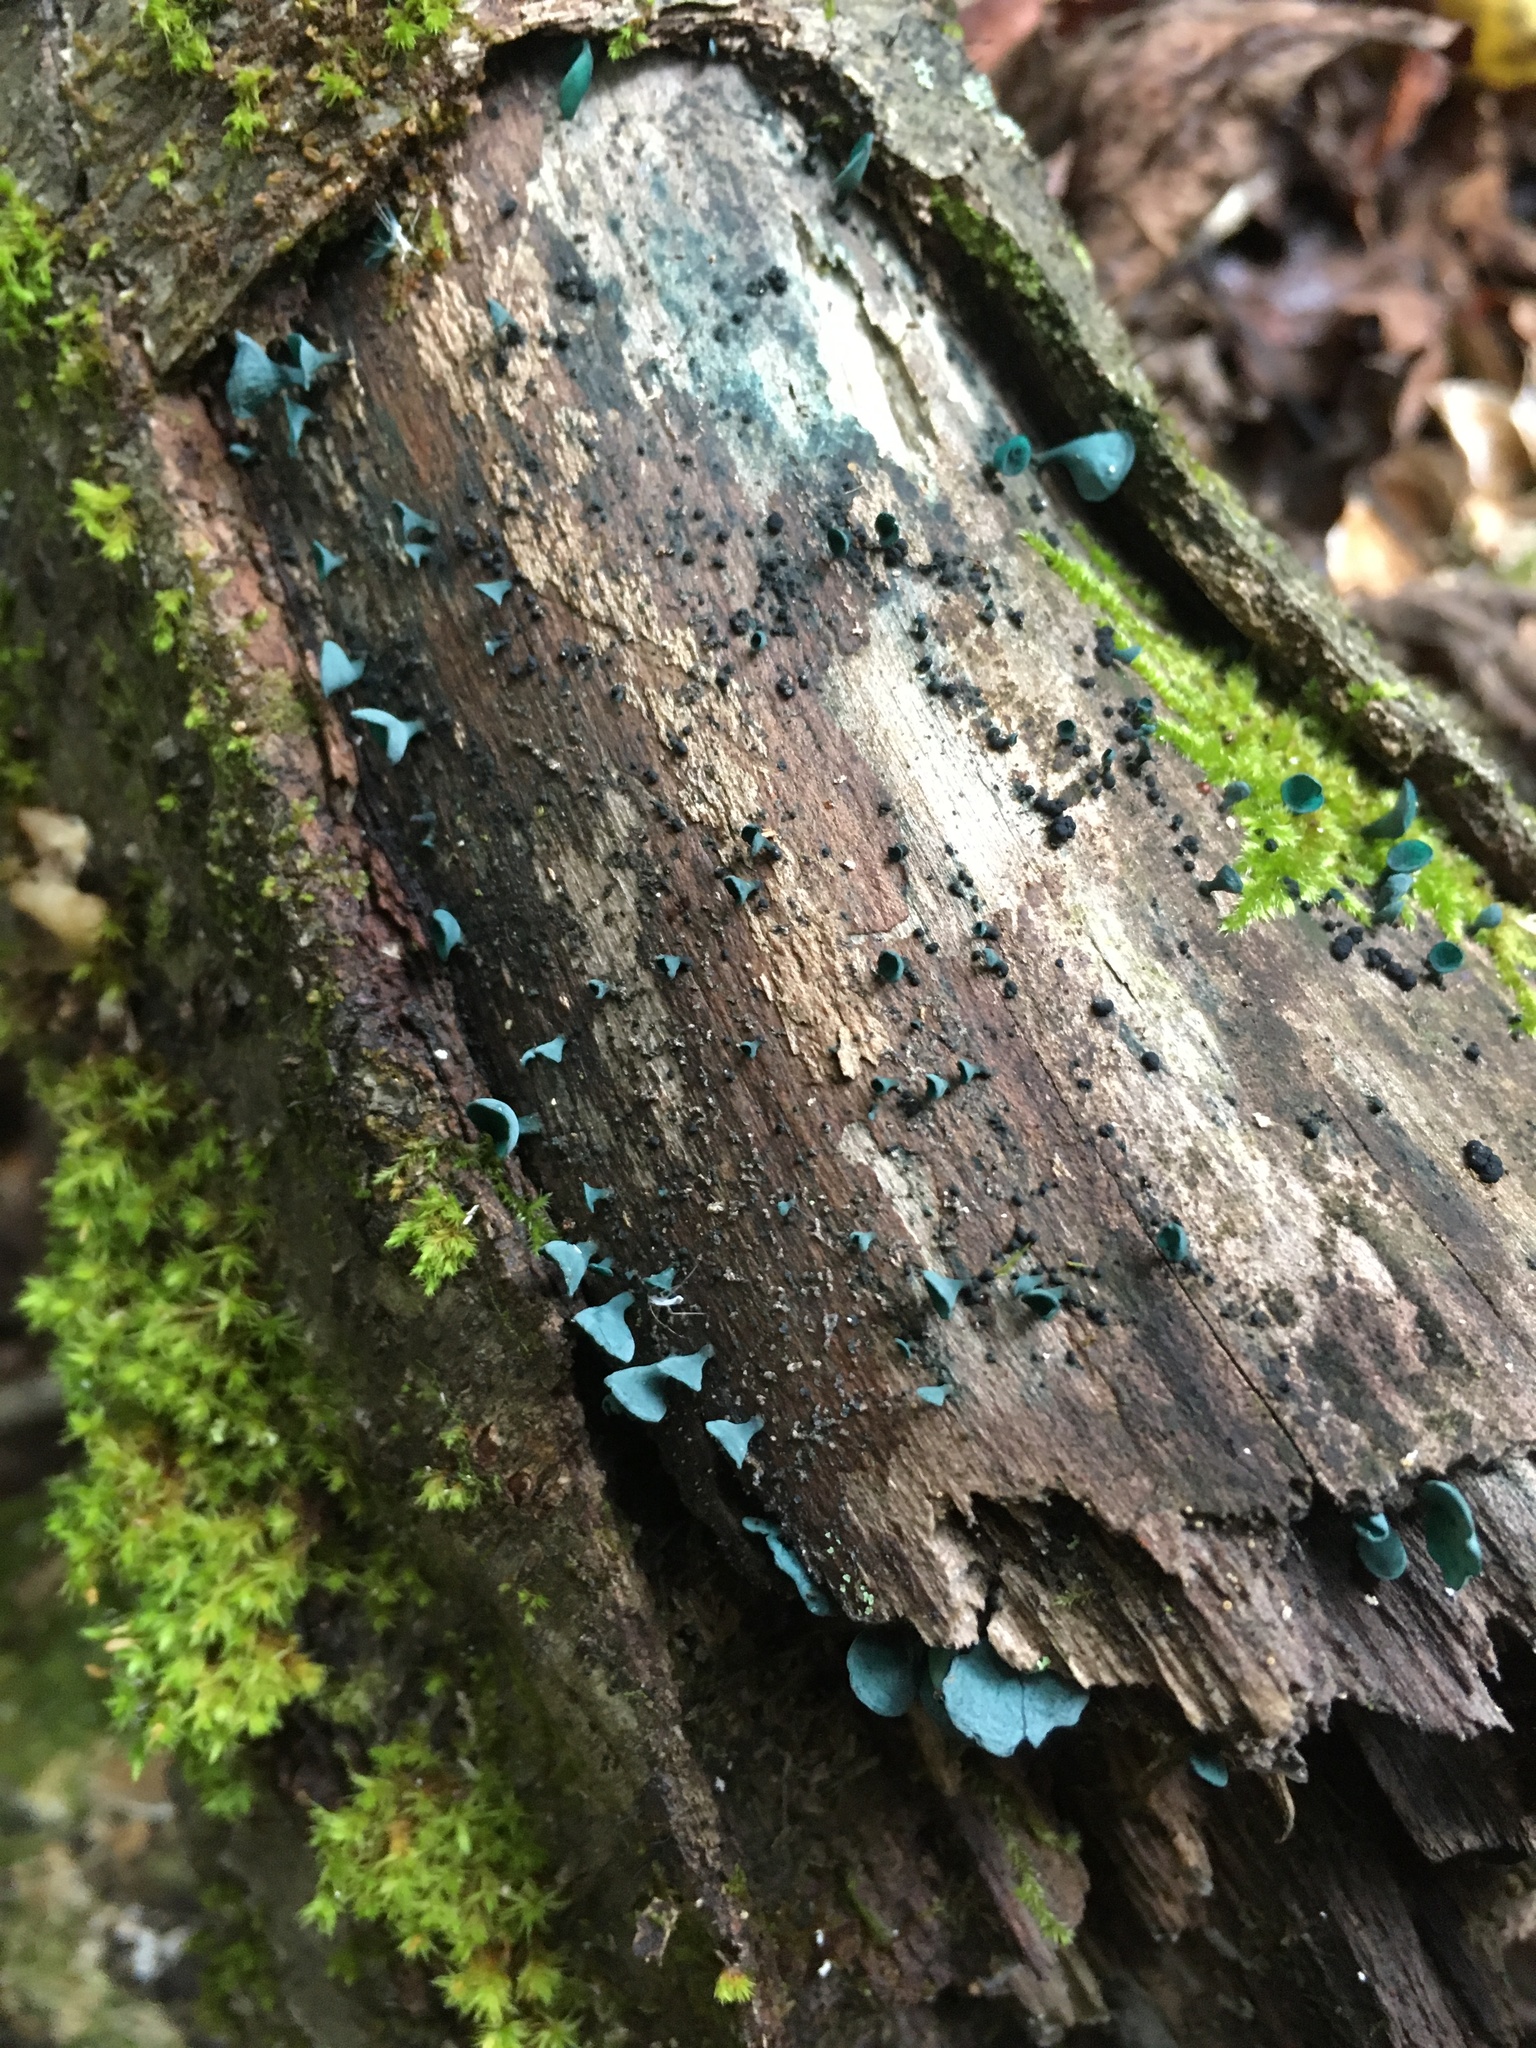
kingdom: Fungi
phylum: Ascomycota
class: Leotiomycetes
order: Helotiales
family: Chlorociboriaceae
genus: Chlorociboria
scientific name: Chlorociboria aeruginascens
